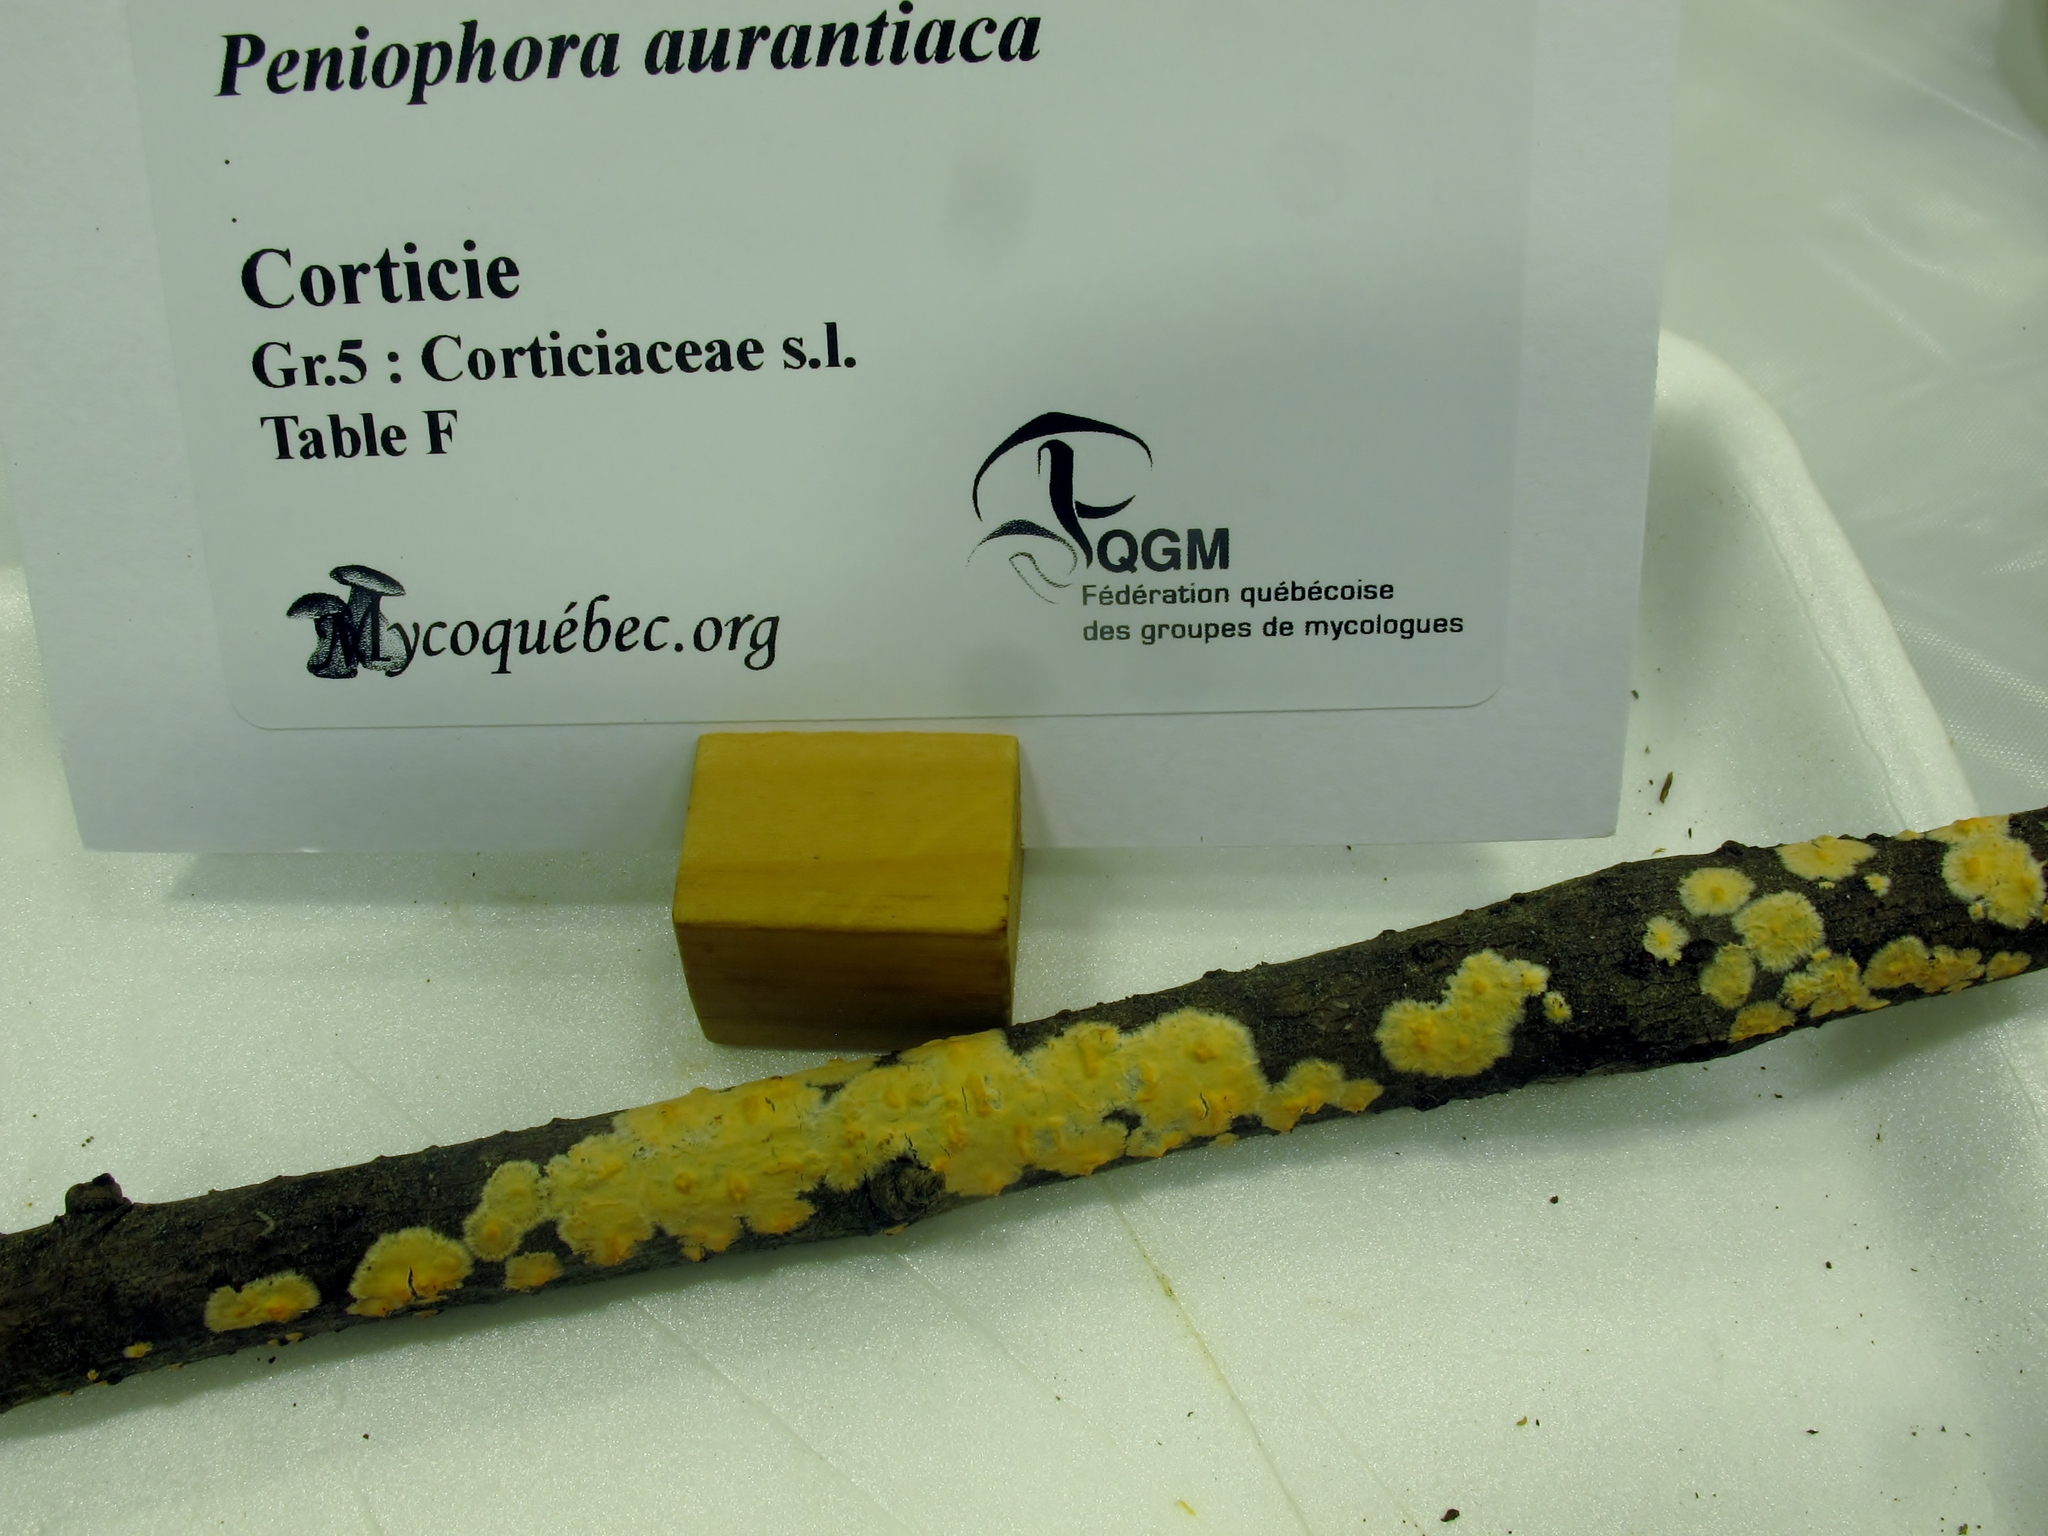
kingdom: Fungi
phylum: Basidiomycota
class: Agaricomycetes
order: Russulales
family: Peniophoraceae
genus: Peniophora
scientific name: Peniophora aurantiaca
